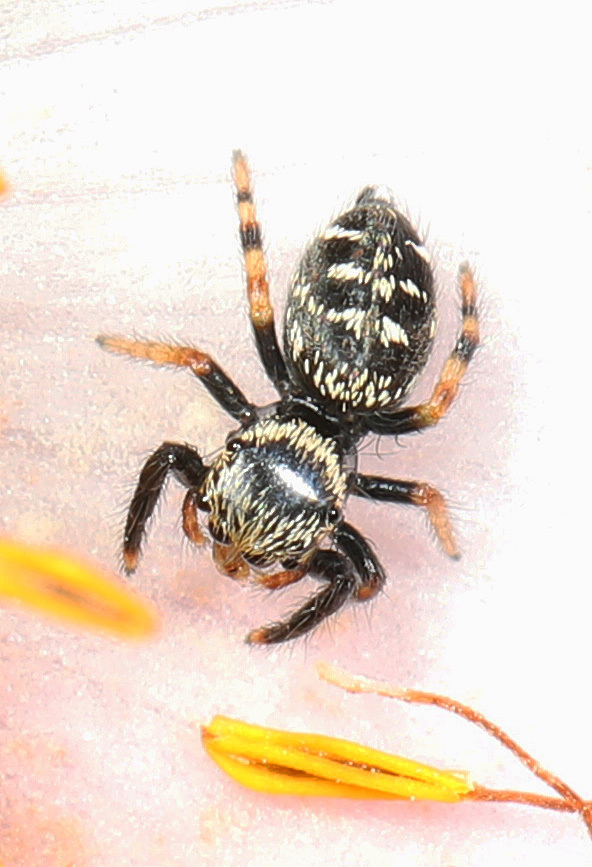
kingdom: Animalia
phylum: Arthropoda
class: Arachnida
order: Araneae
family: Salticidae
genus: Paraphidippus
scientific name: Paraphidippus aurantius
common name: Jumping spiders
